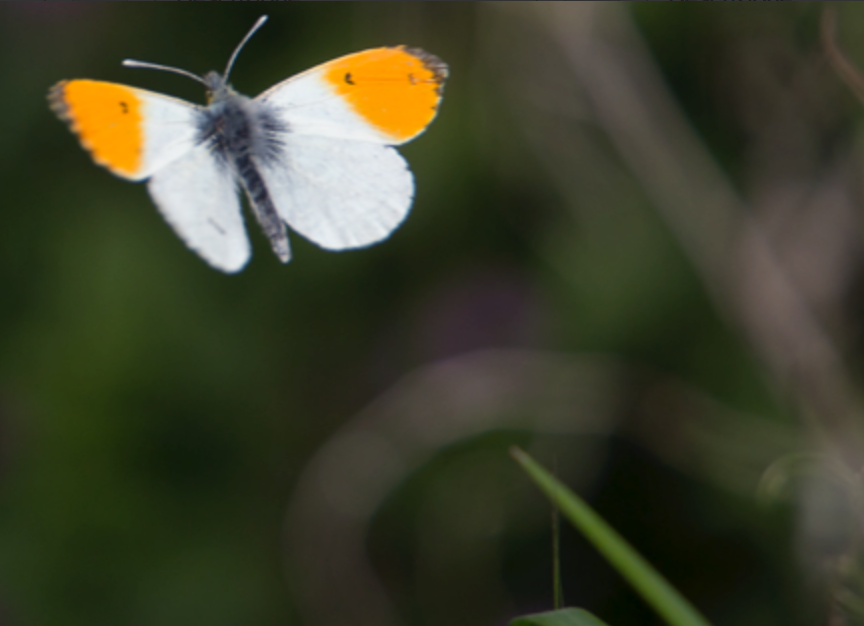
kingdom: Animalia
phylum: Arthropoda
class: Insecta
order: Lepidoptera
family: Pieridae
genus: Anthocharis
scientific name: Anthocharis cardamines
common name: Orange-tip
